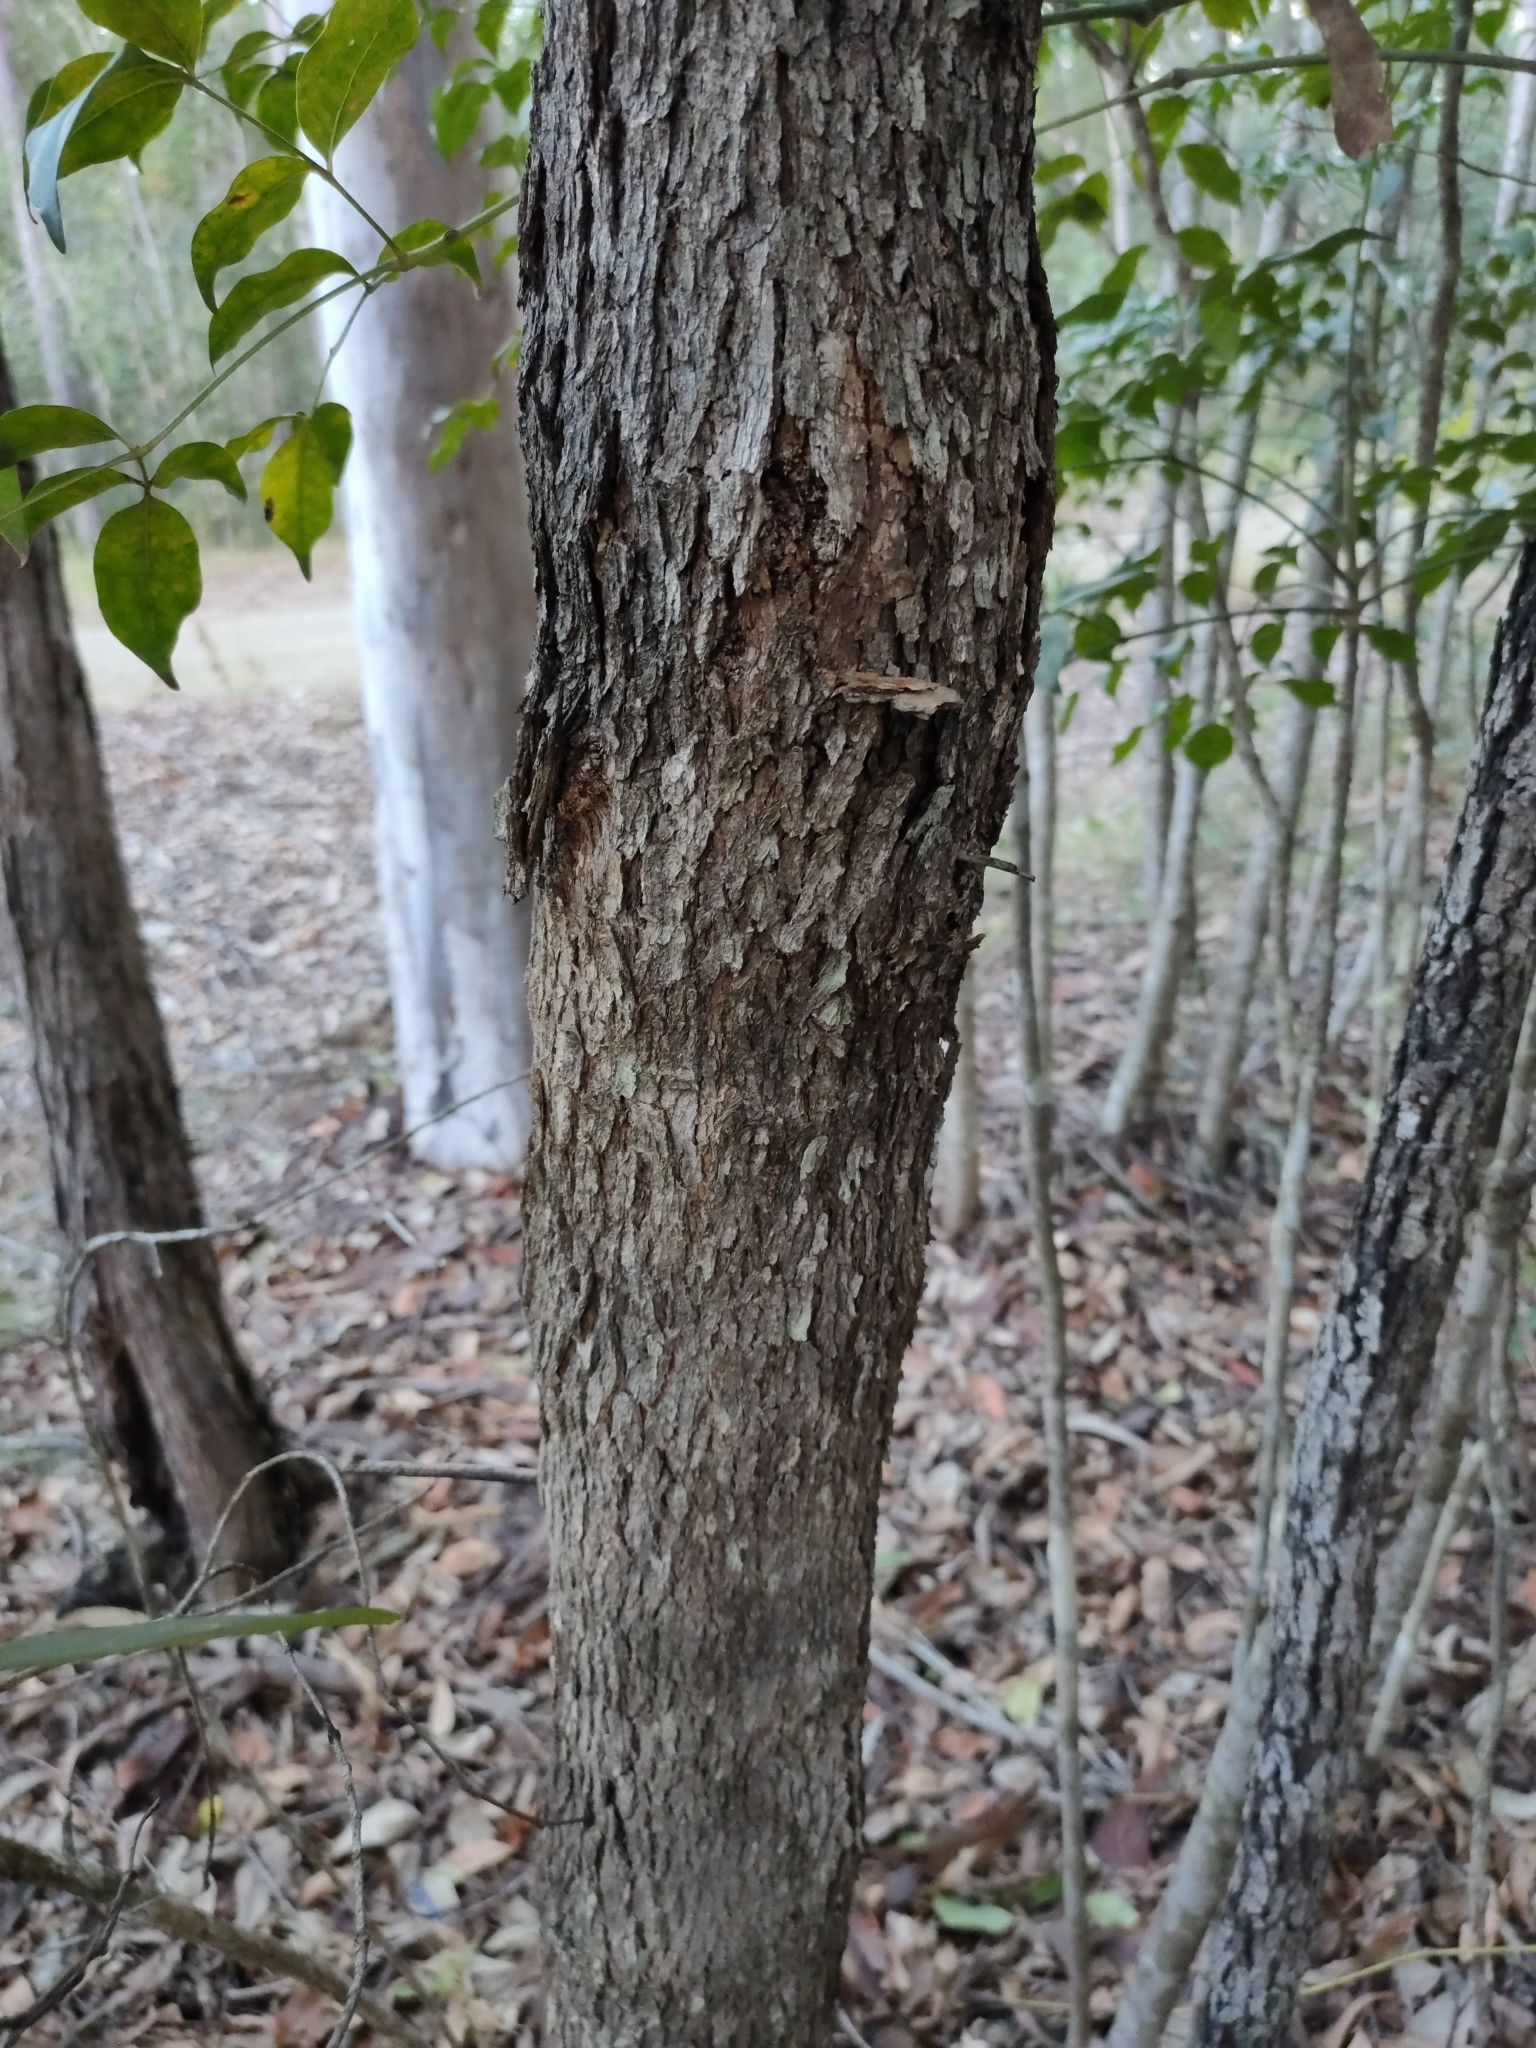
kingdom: Plantae
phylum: Tracheophyta
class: Magnoliopsida
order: Myrtales
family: Myrtaceae
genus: Lophostemon
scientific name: Lophostemon confertus
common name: Brisbane box
